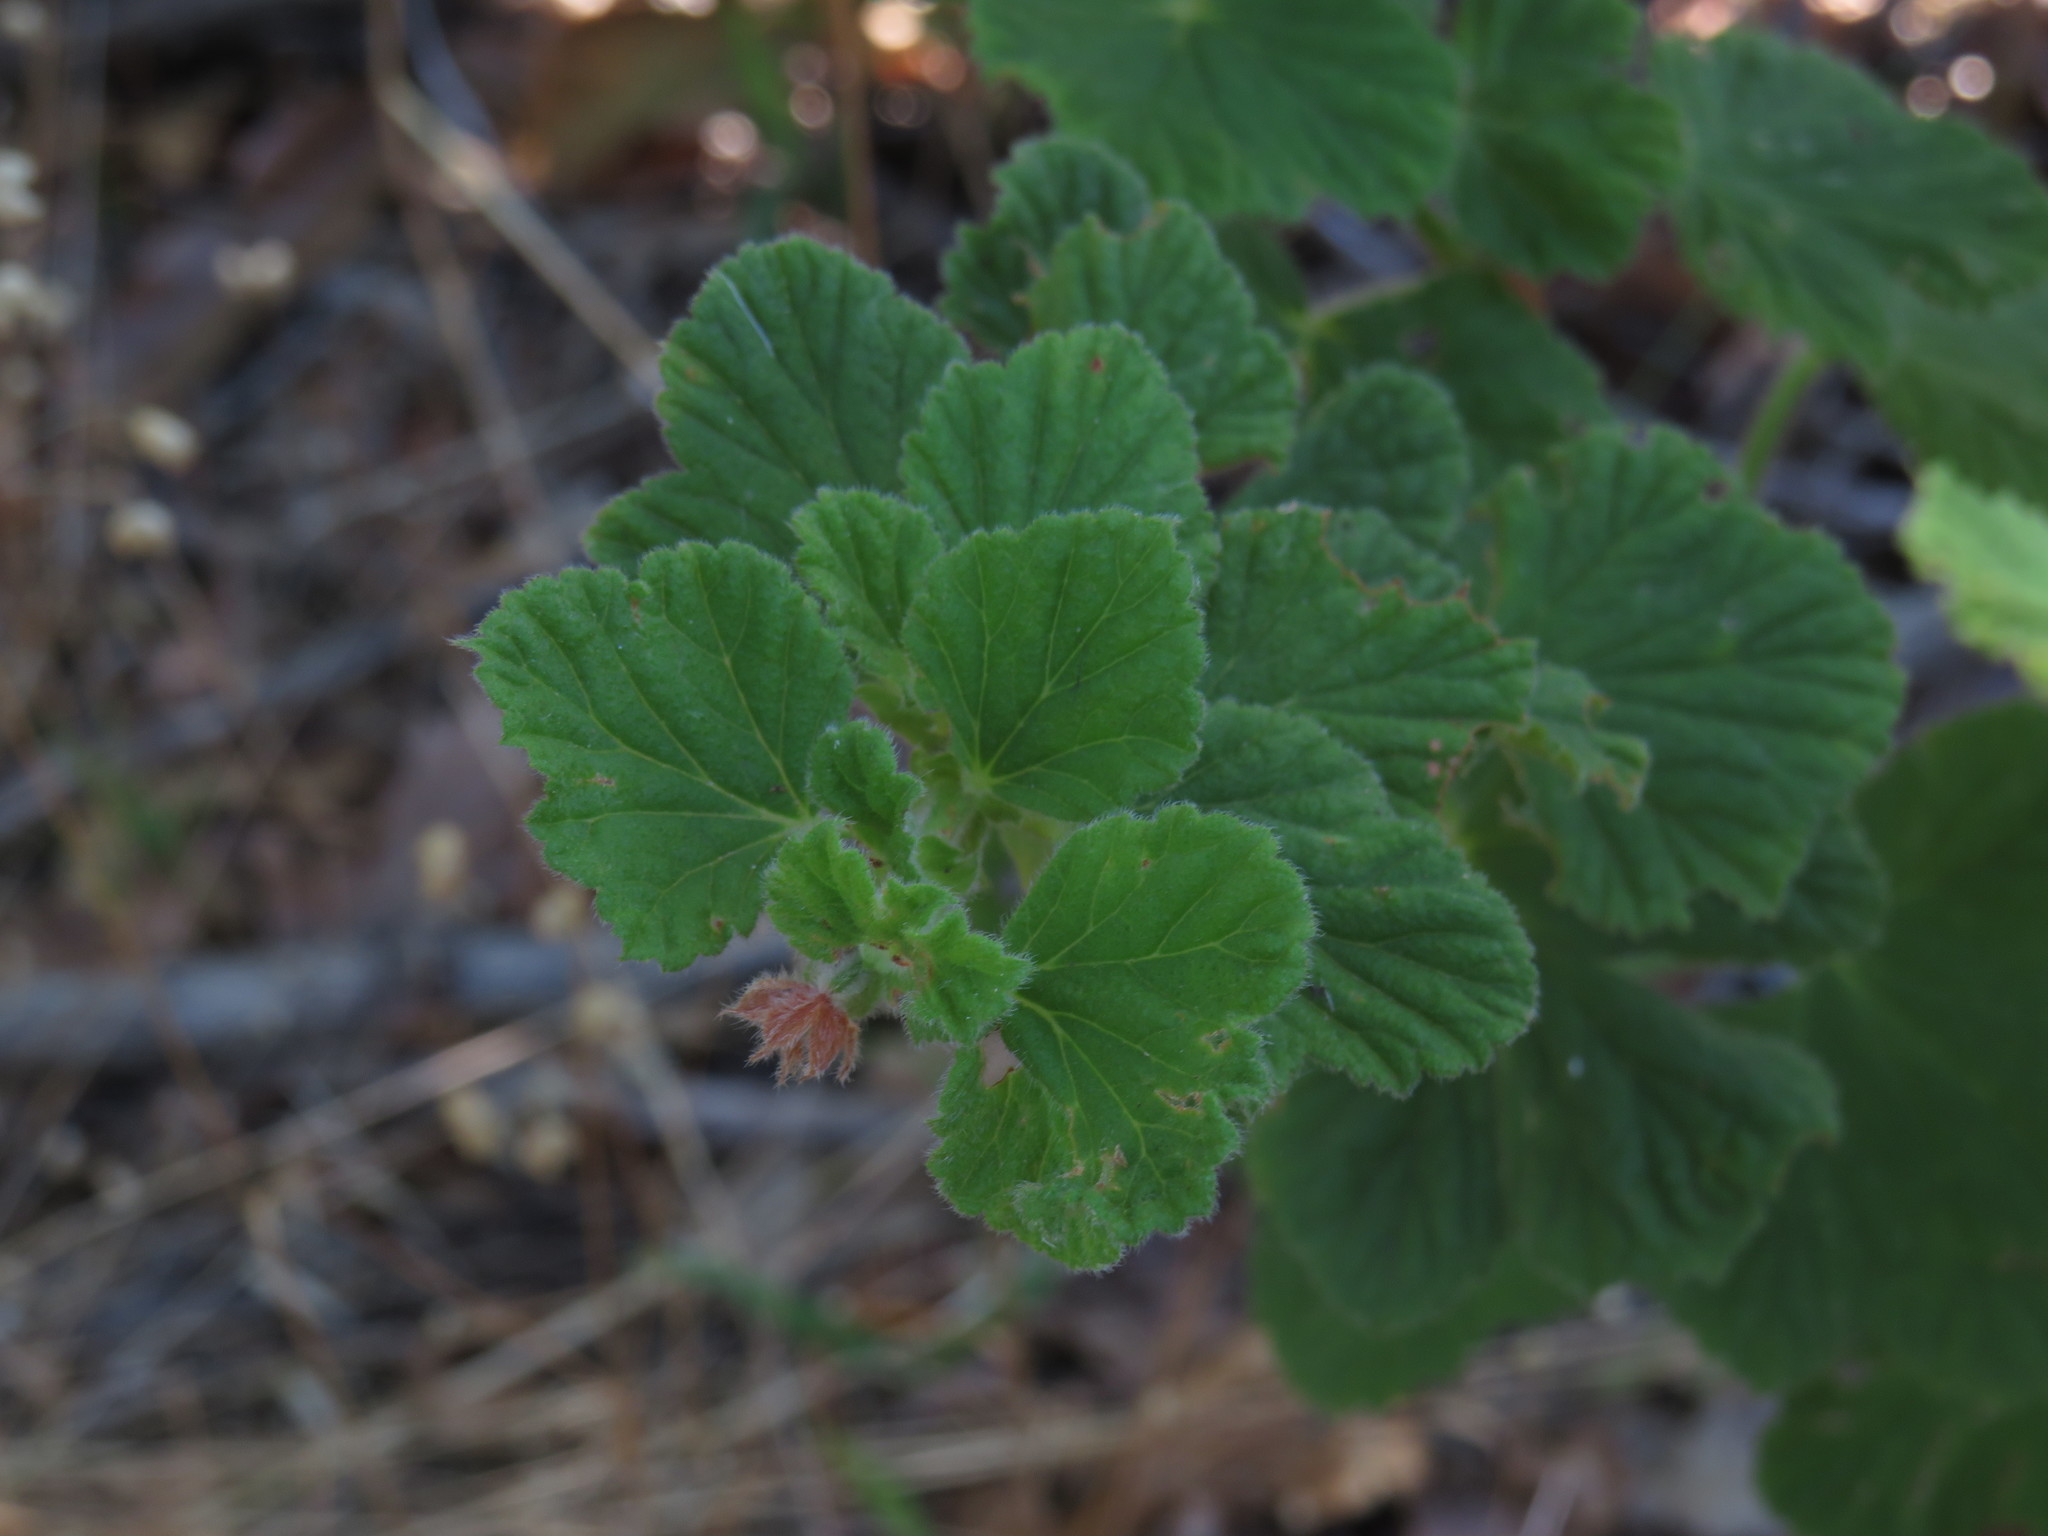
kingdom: Plantae
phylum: Tracheophyta
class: Magnoliopsida
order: Geraniales
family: Geraniaceae
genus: Pelargonium
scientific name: Pelargonium vitifolium
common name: Grapeleaf geranium
